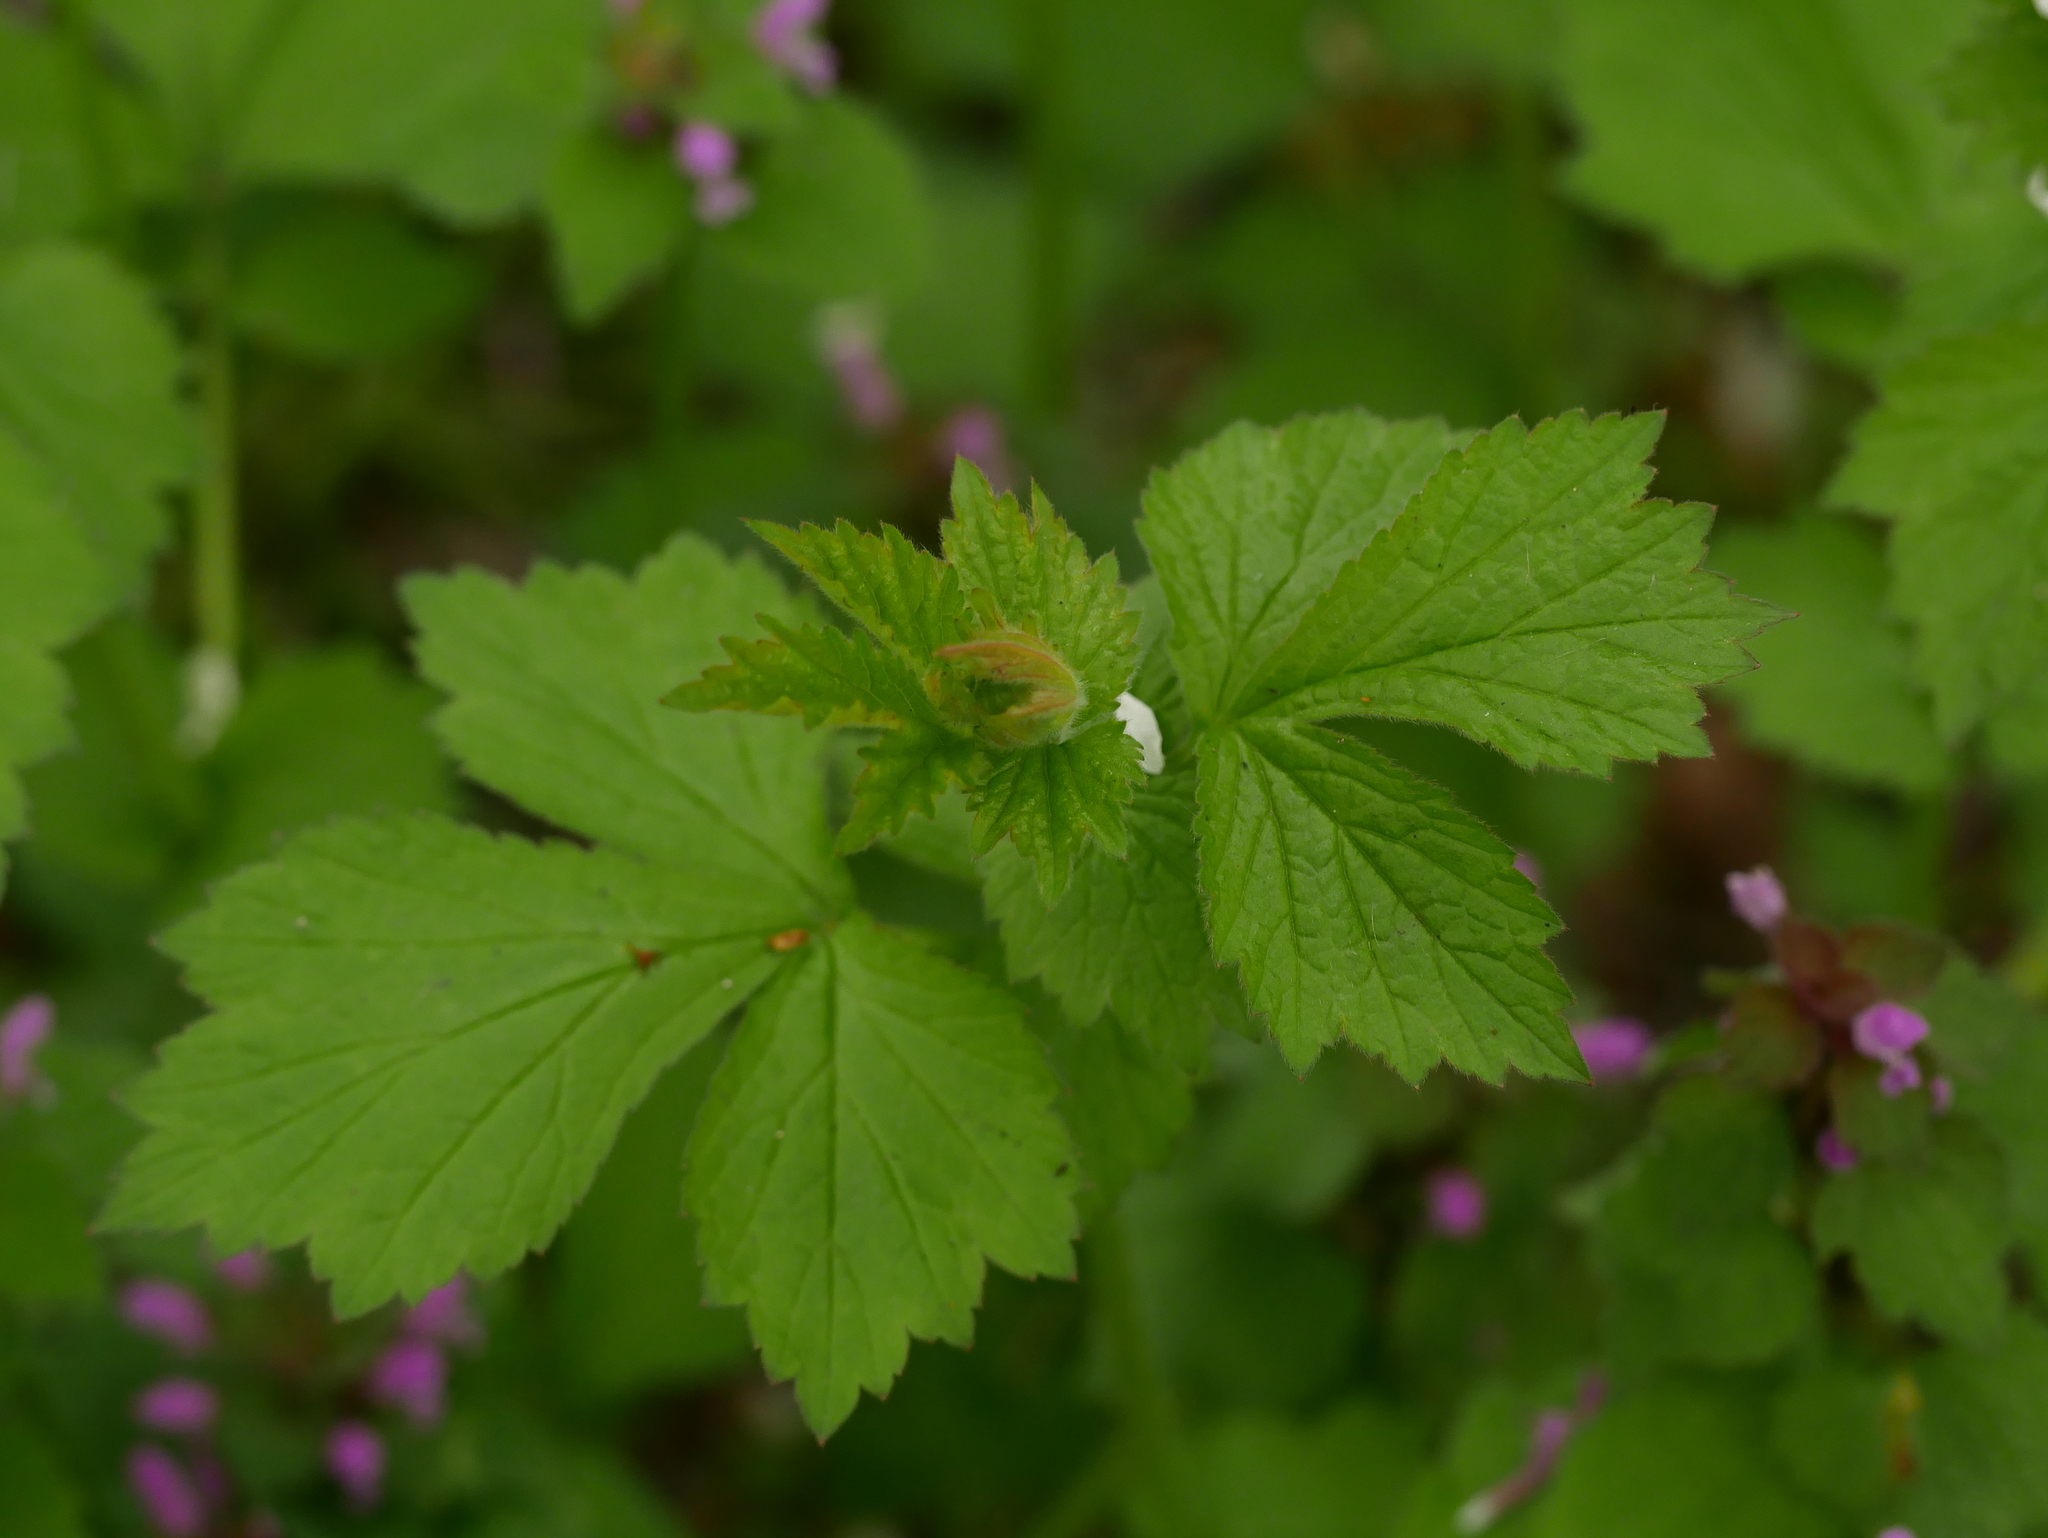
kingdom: Plantae
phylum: Tracheophyta
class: Magnoliopsida
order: Rosales
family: Rosaceae
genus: Geum
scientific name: Geum urbanum
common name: Wood avens
